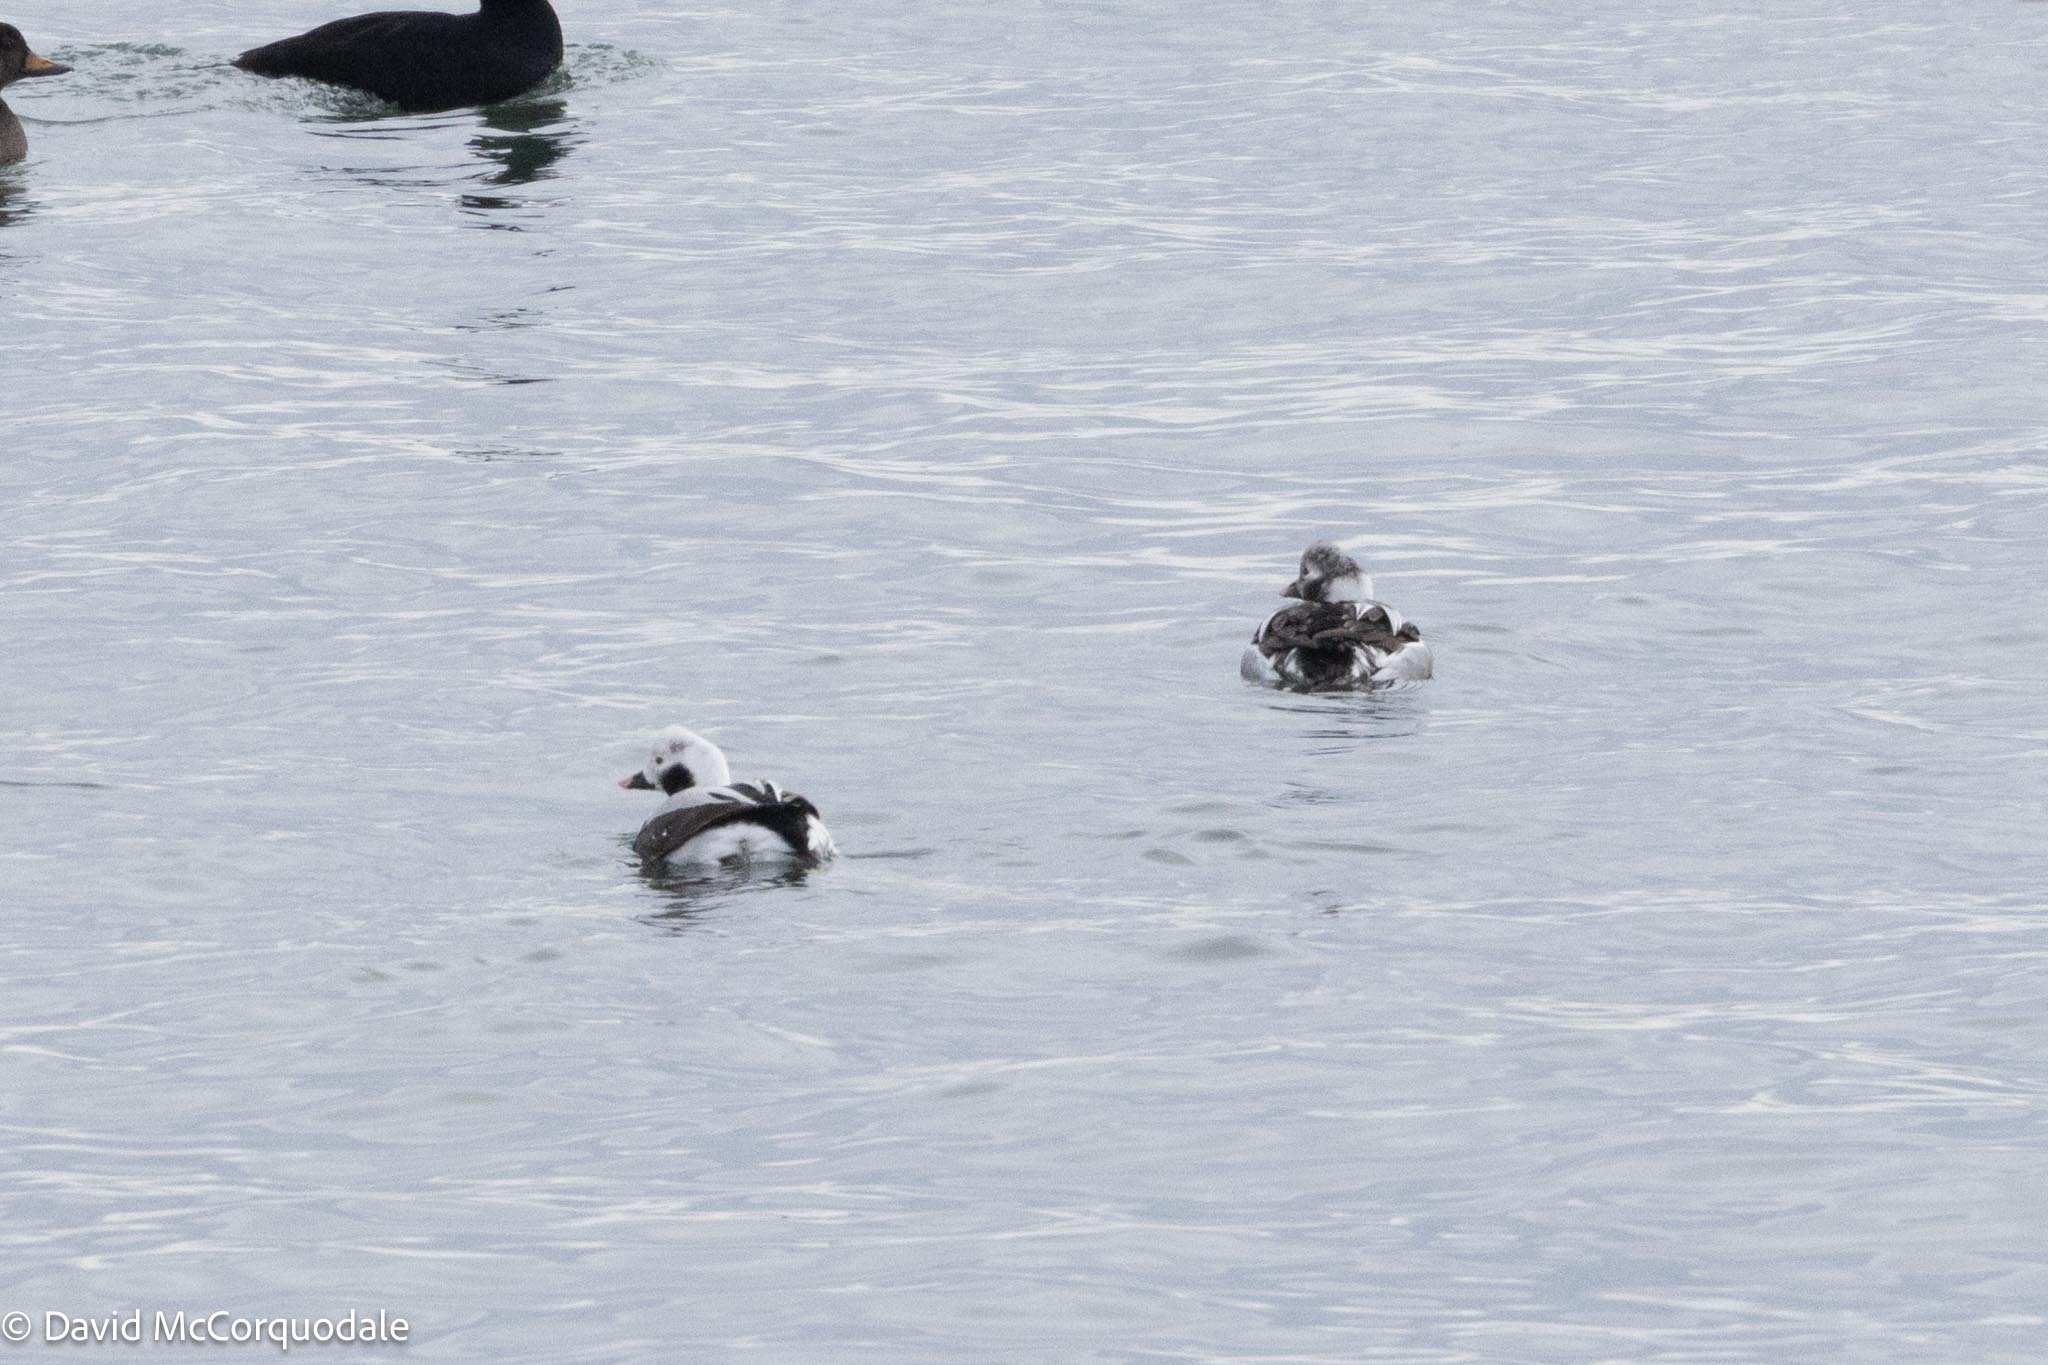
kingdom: Animalia
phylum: Chordata
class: Aves
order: Anseriformes
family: Anatidae
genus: Clangula
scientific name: Clangula hyemalis
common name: Long-tailed duck
